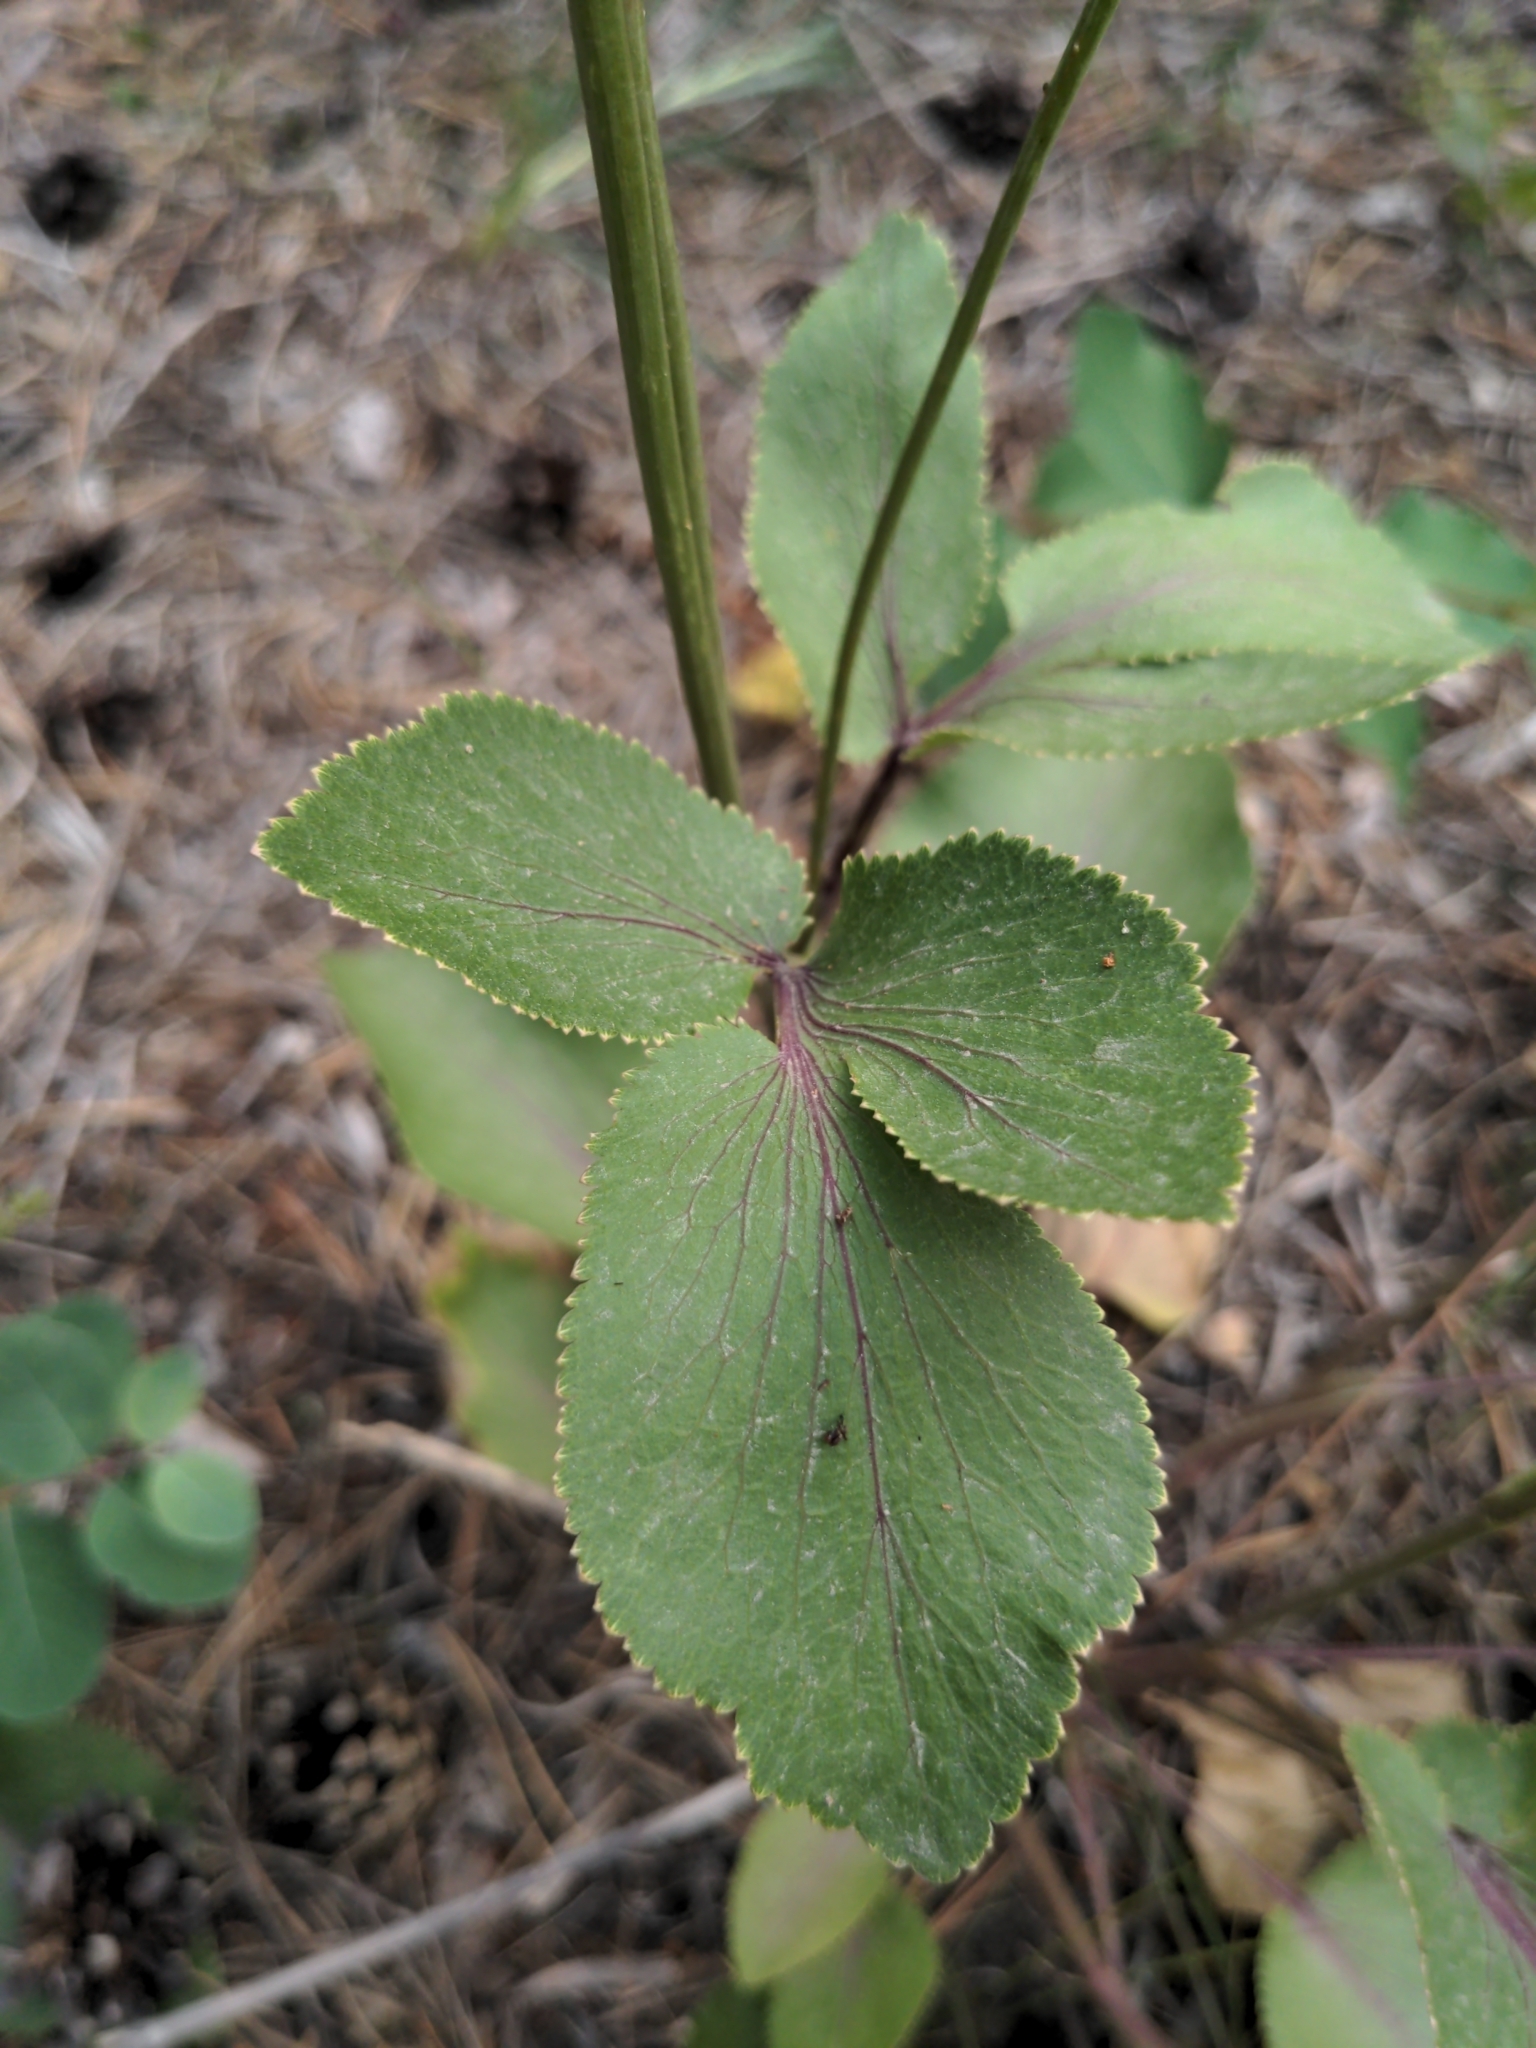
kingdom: Plantae
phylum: Tracheophyta
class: Magnoliopsida
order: Apiales
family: Apiaceae
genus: Zizia
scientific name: Zizia aptera
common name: Heart-leaved alexanders
